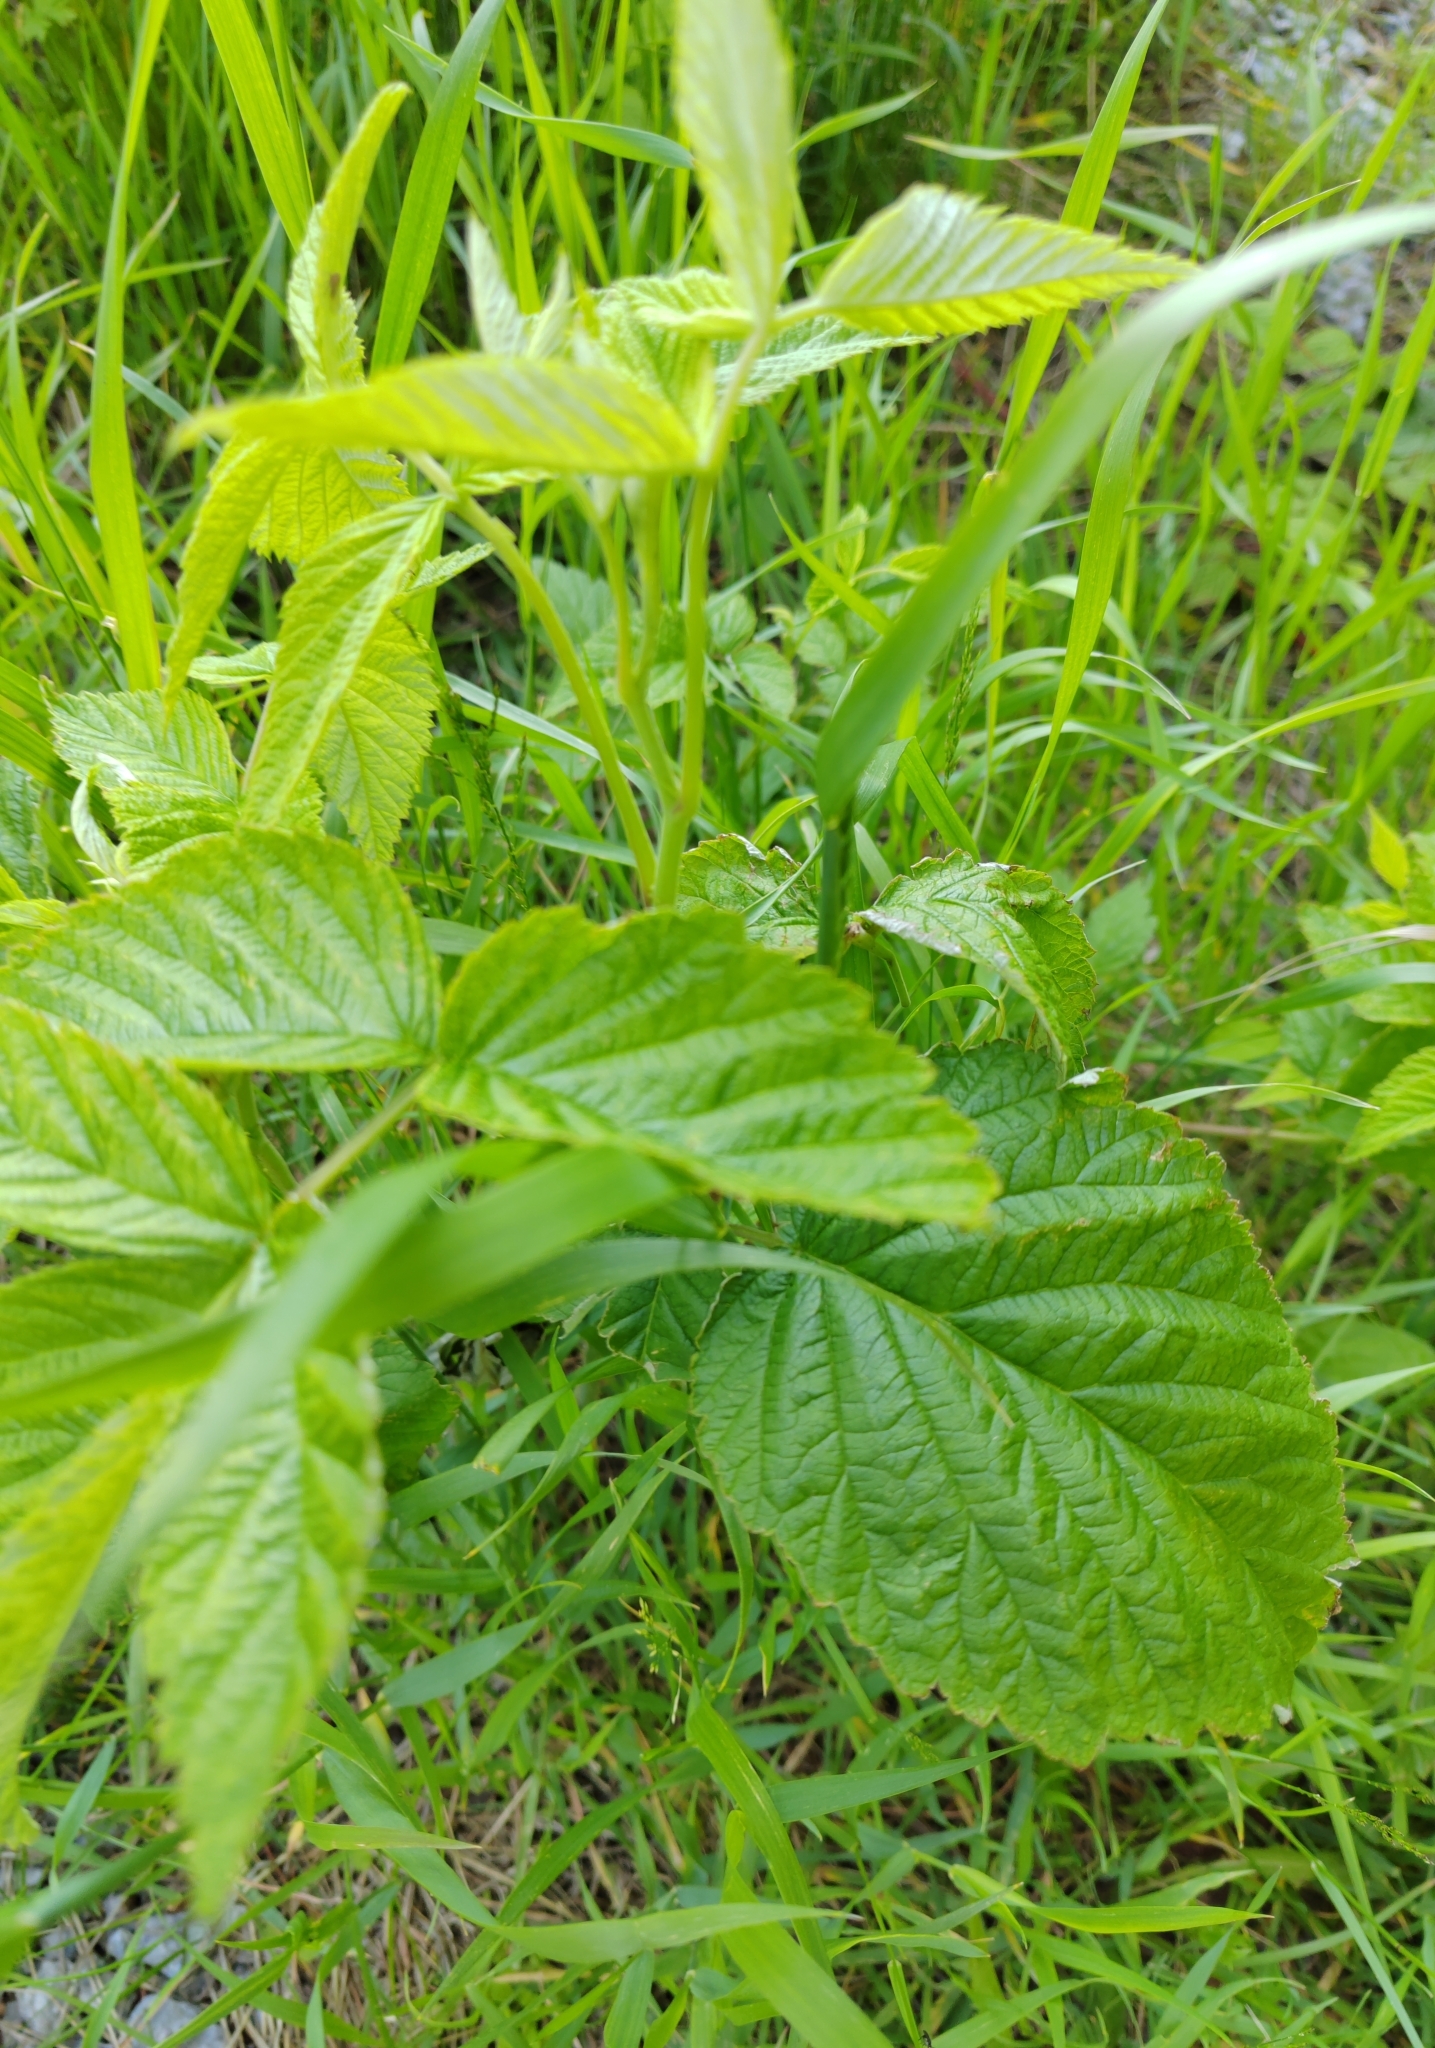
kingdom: Plantae
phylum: Tracheophyta
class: Magnoliopsida
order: Rosales
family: Rosaceae
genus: Rubus
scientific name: Rubus idaeus
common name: Raspberry
